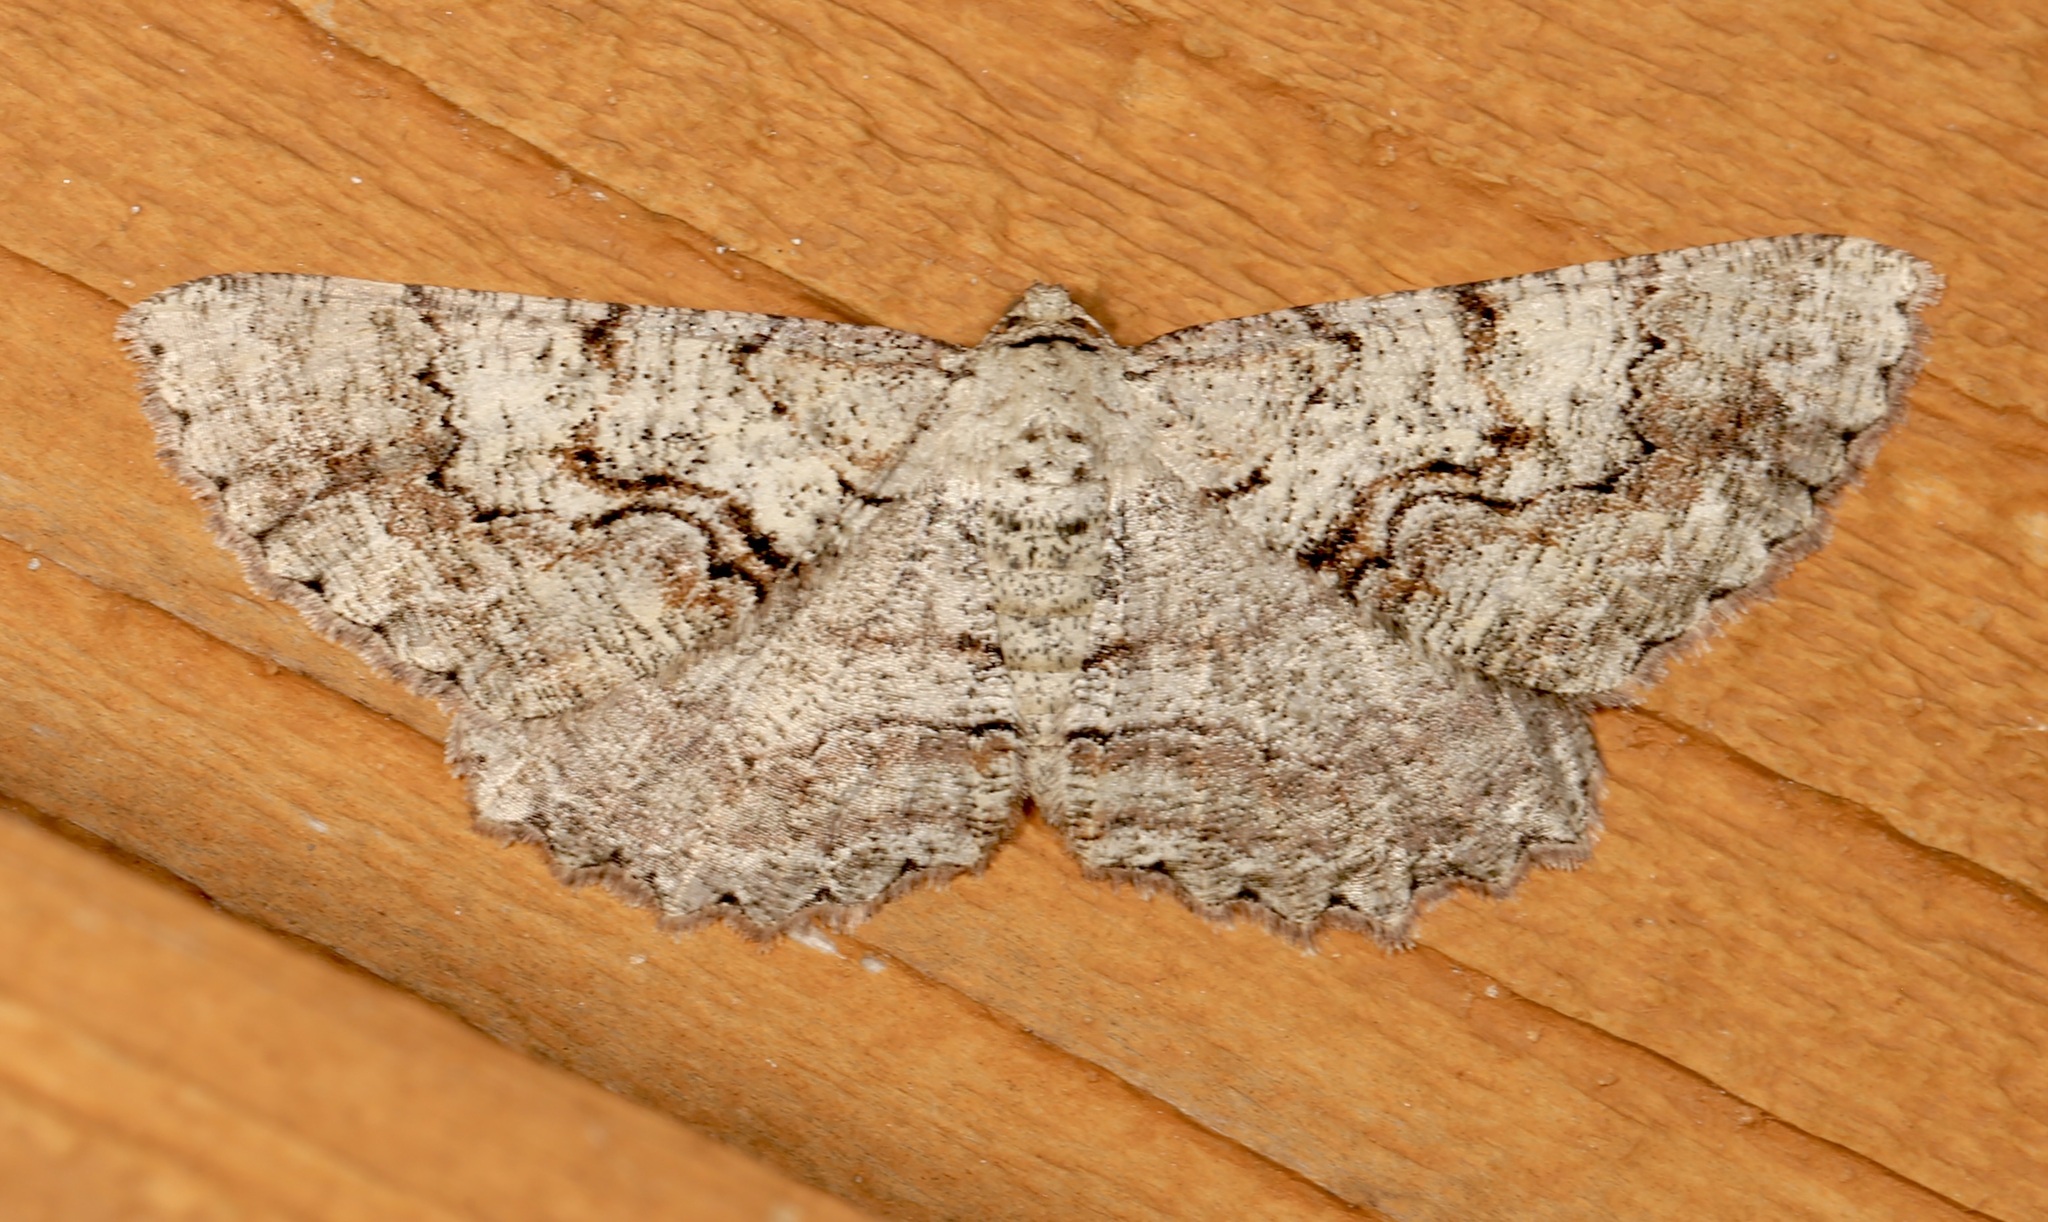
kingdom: Animalia
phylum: Arthropoda
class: Insecta
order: Lepidoptera
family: Geometridae
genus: Cymatophora
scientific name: Cymatophora approximaria
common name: Giant gray moth
